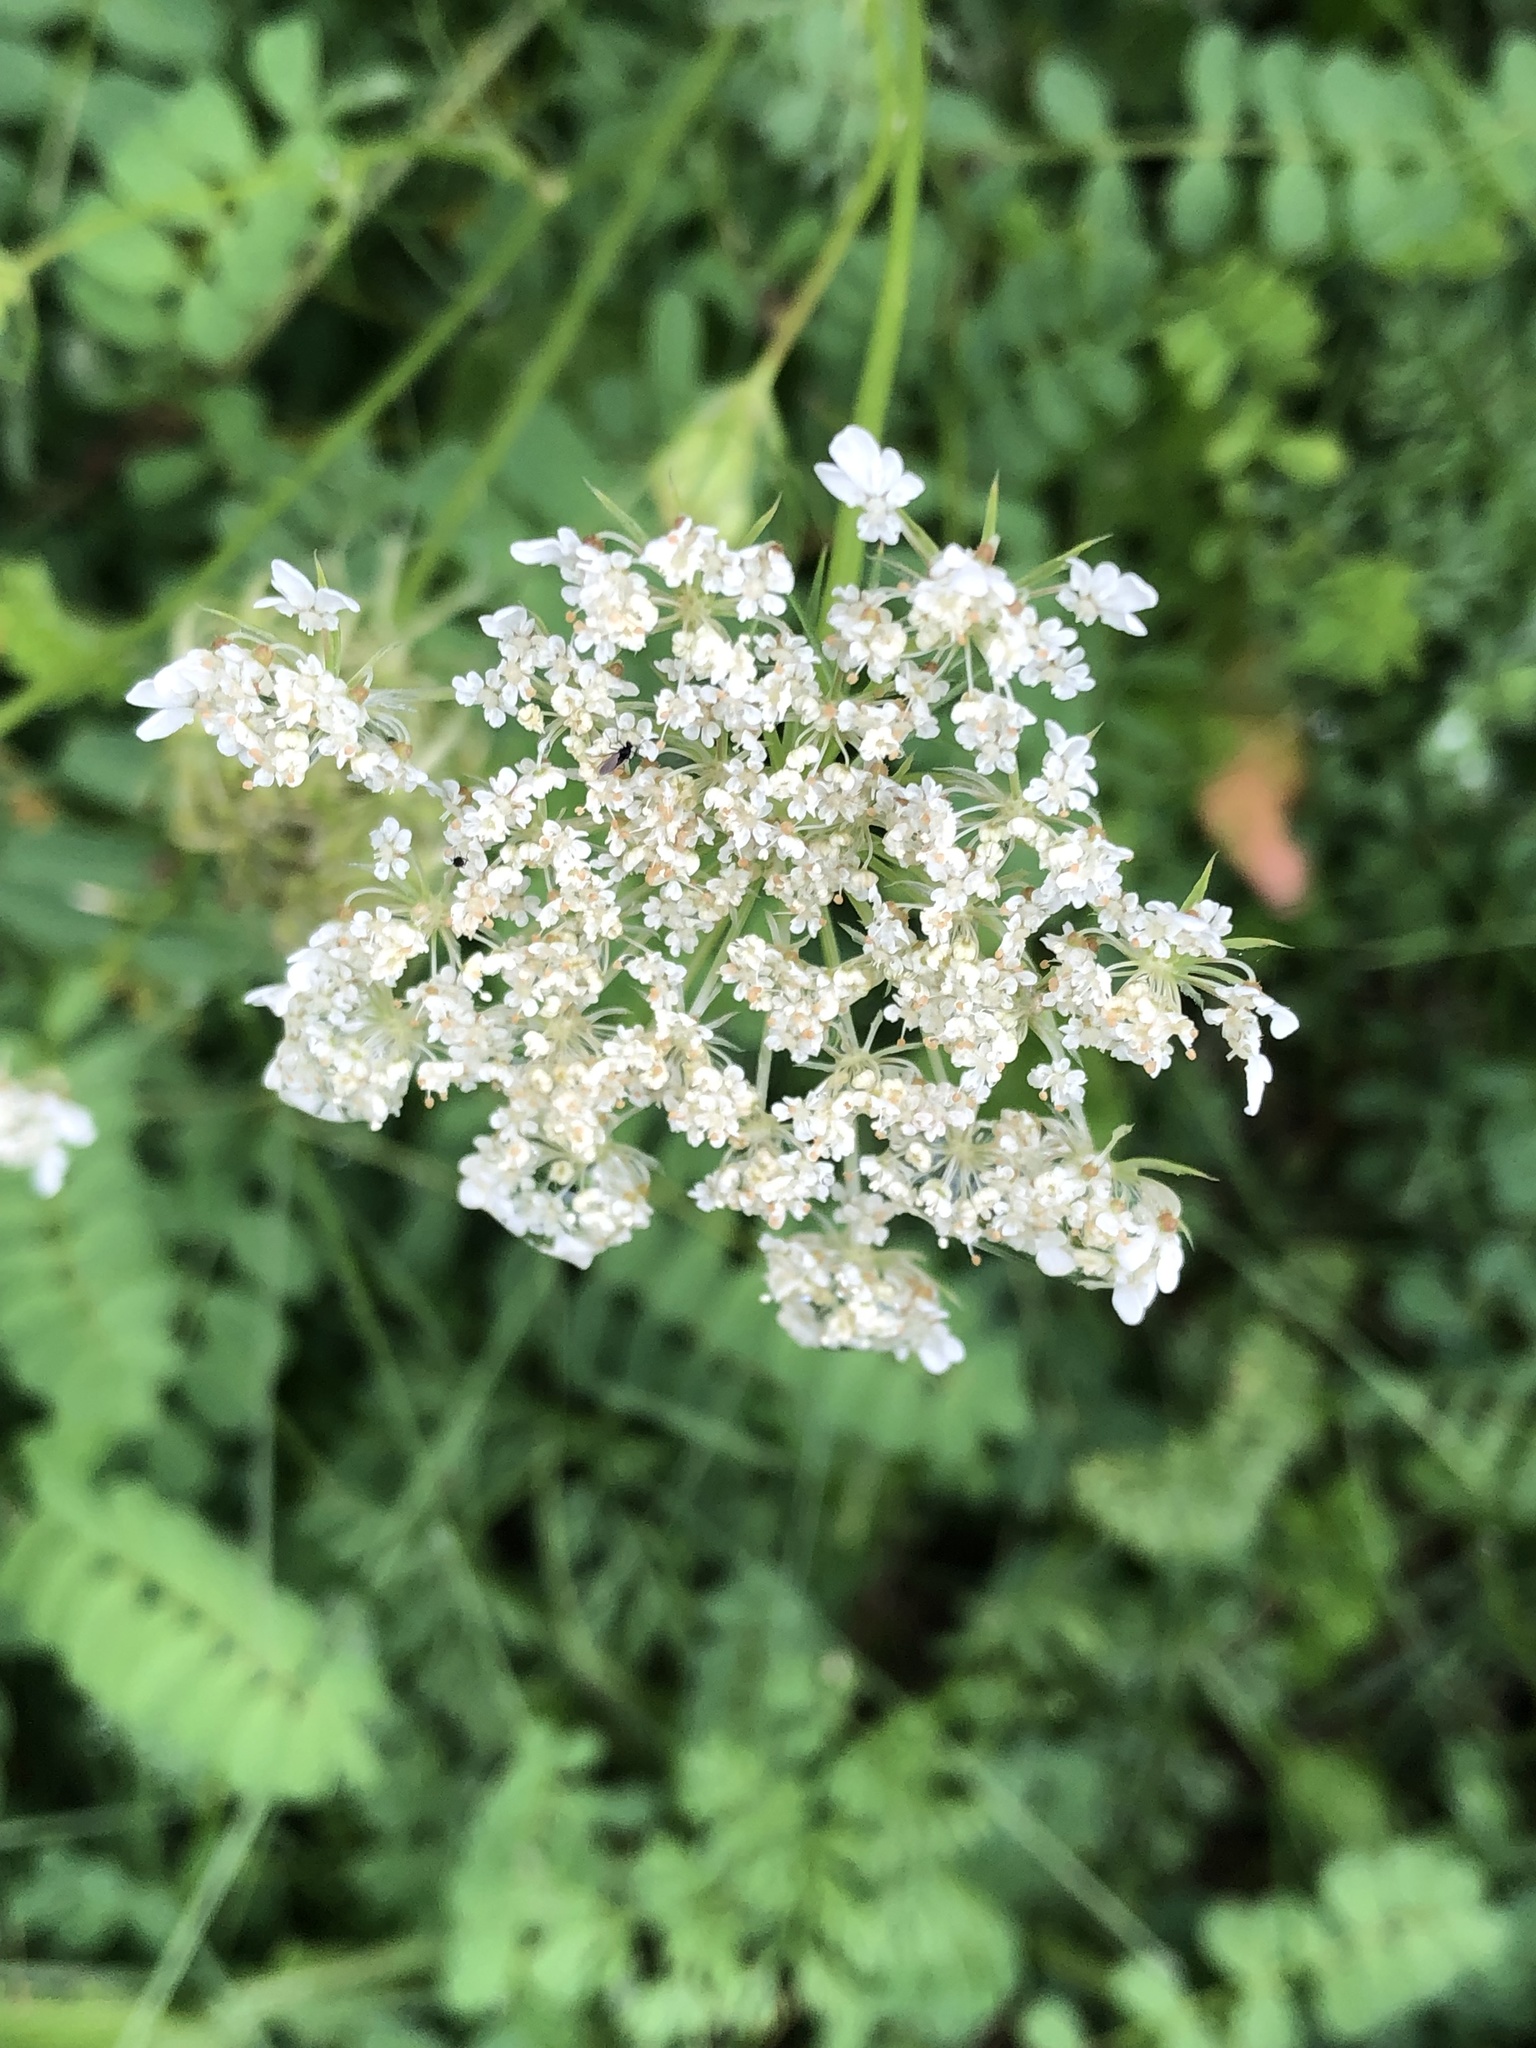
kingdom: Plantae
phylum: Tracheophyta
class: Magnoliopsida
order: Apiales
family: Apiaceae
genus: Daucus
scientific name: Daucus carota
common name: Wild carrot
